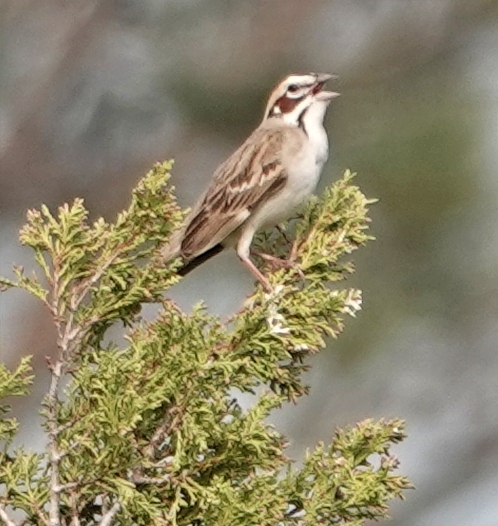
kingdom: Animalia
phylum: Chordata
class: Aves
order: Passeriformes
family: Passerellidae
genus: Chondestes
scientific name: Chondestes grammacus
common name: Lark sparrow
